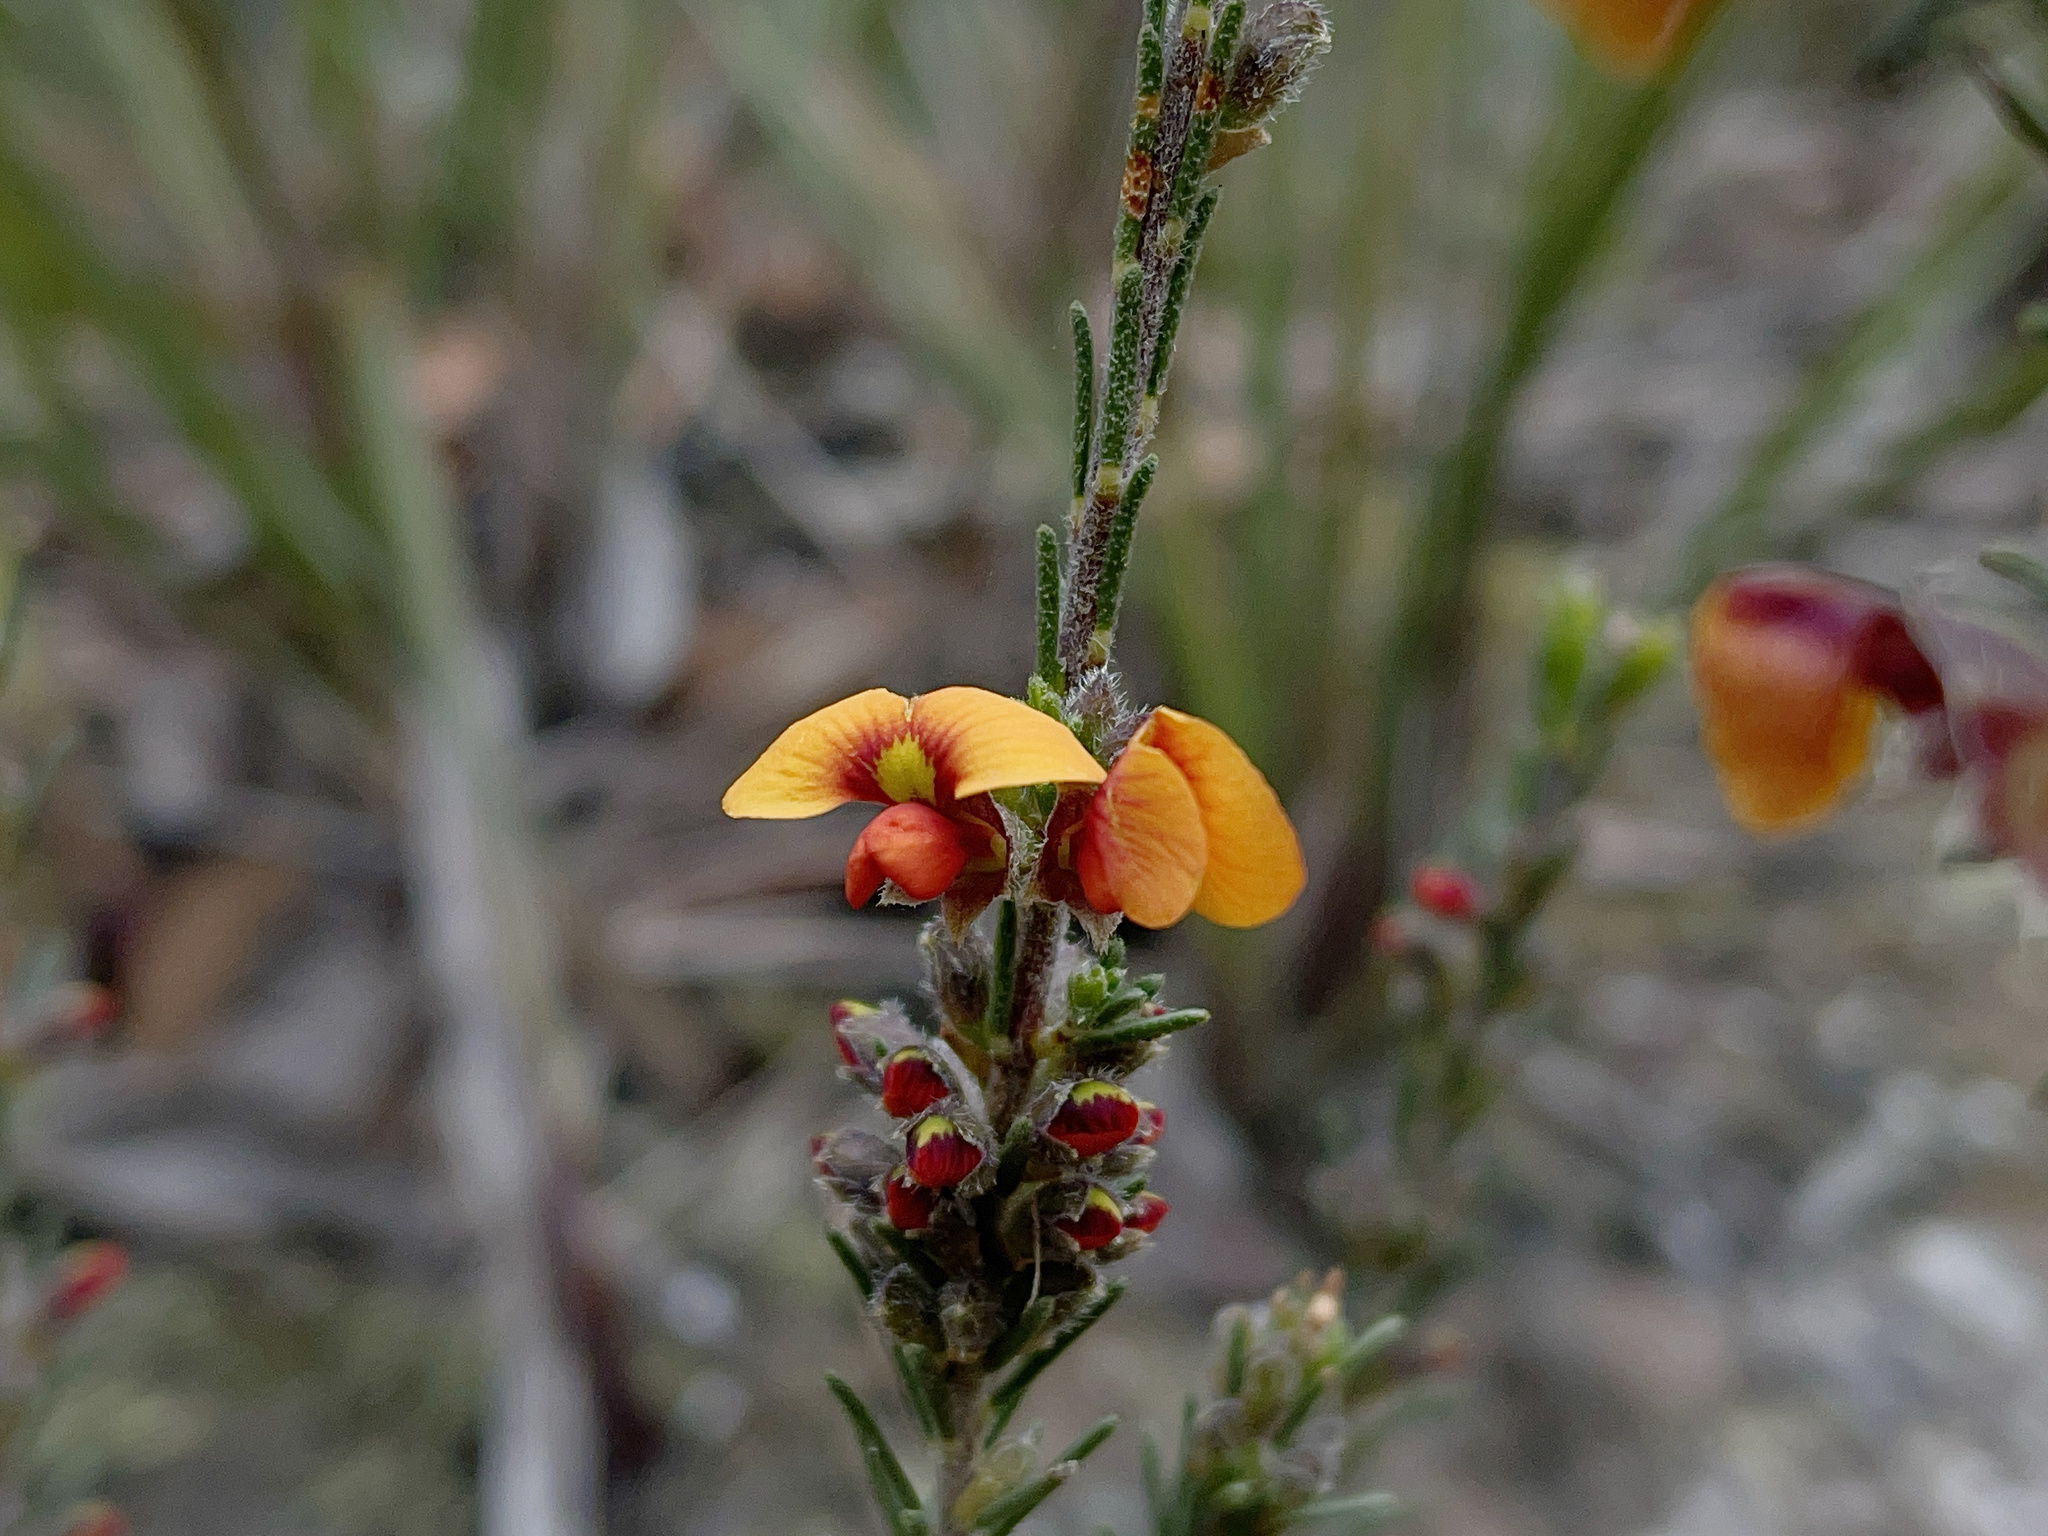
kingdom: Plantae
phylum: Tracheophyta
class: Magnoliopsida
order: Fabales
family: Fabaceae
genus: Dillwynia
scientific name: Dillwynia sericea
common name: Showy parrot-pea
